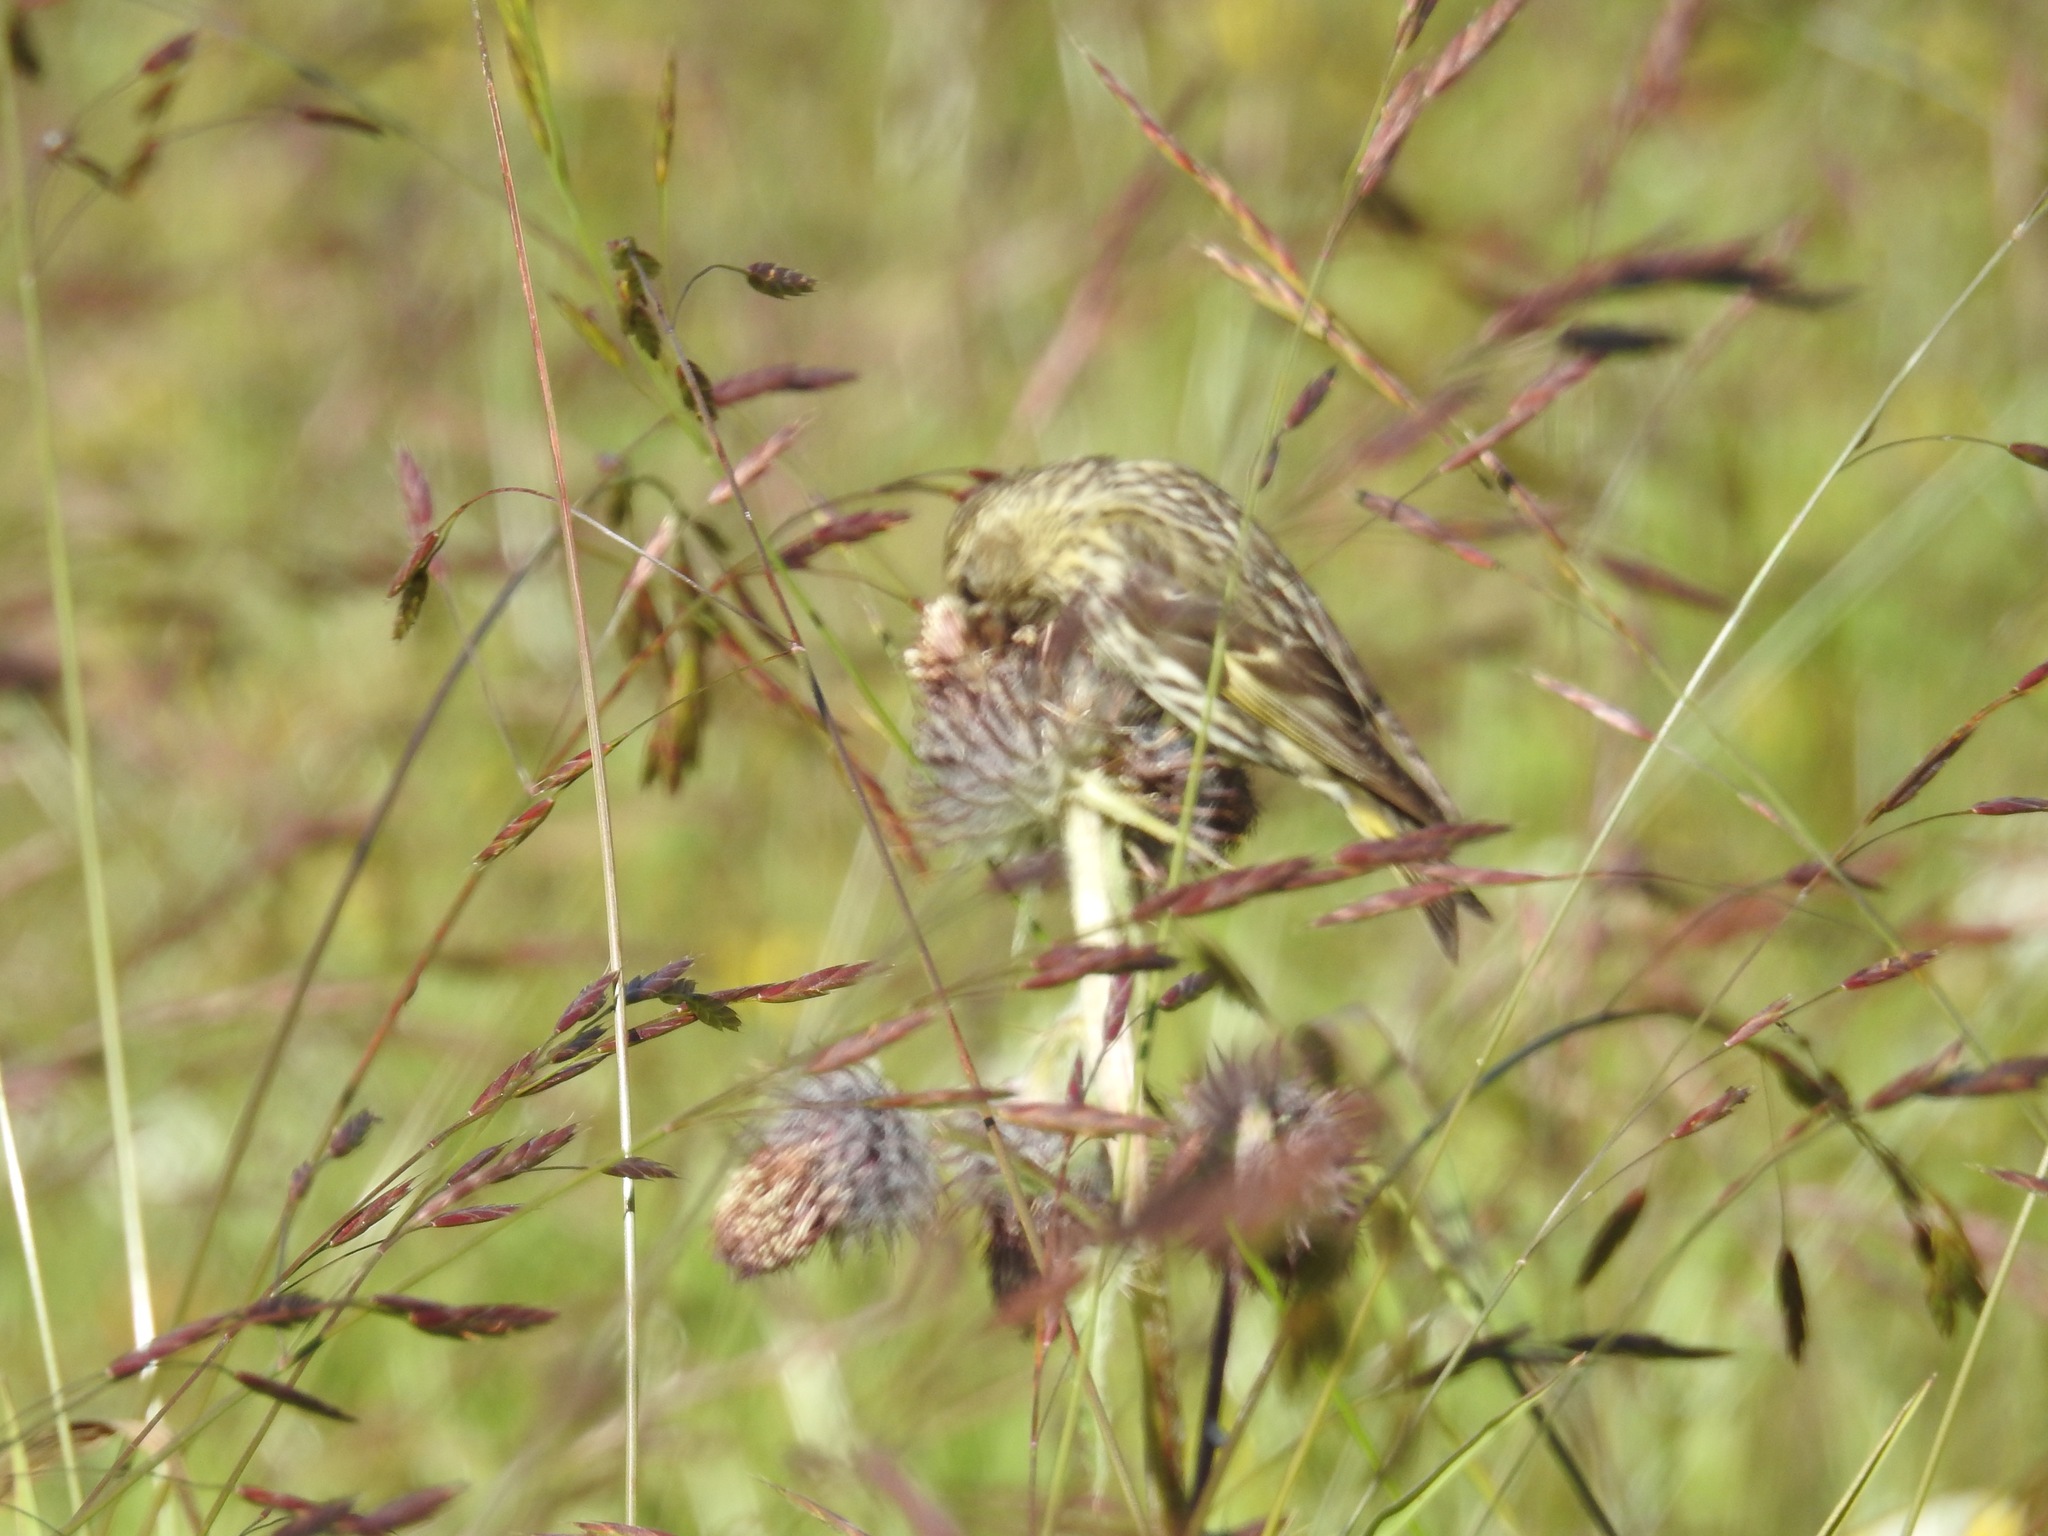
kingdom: Animalia
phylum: Chordata
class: Aves
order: Passeriformes
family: Fringillidae
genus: Spinus
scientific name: Spinus pinus
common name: Pine siskin
